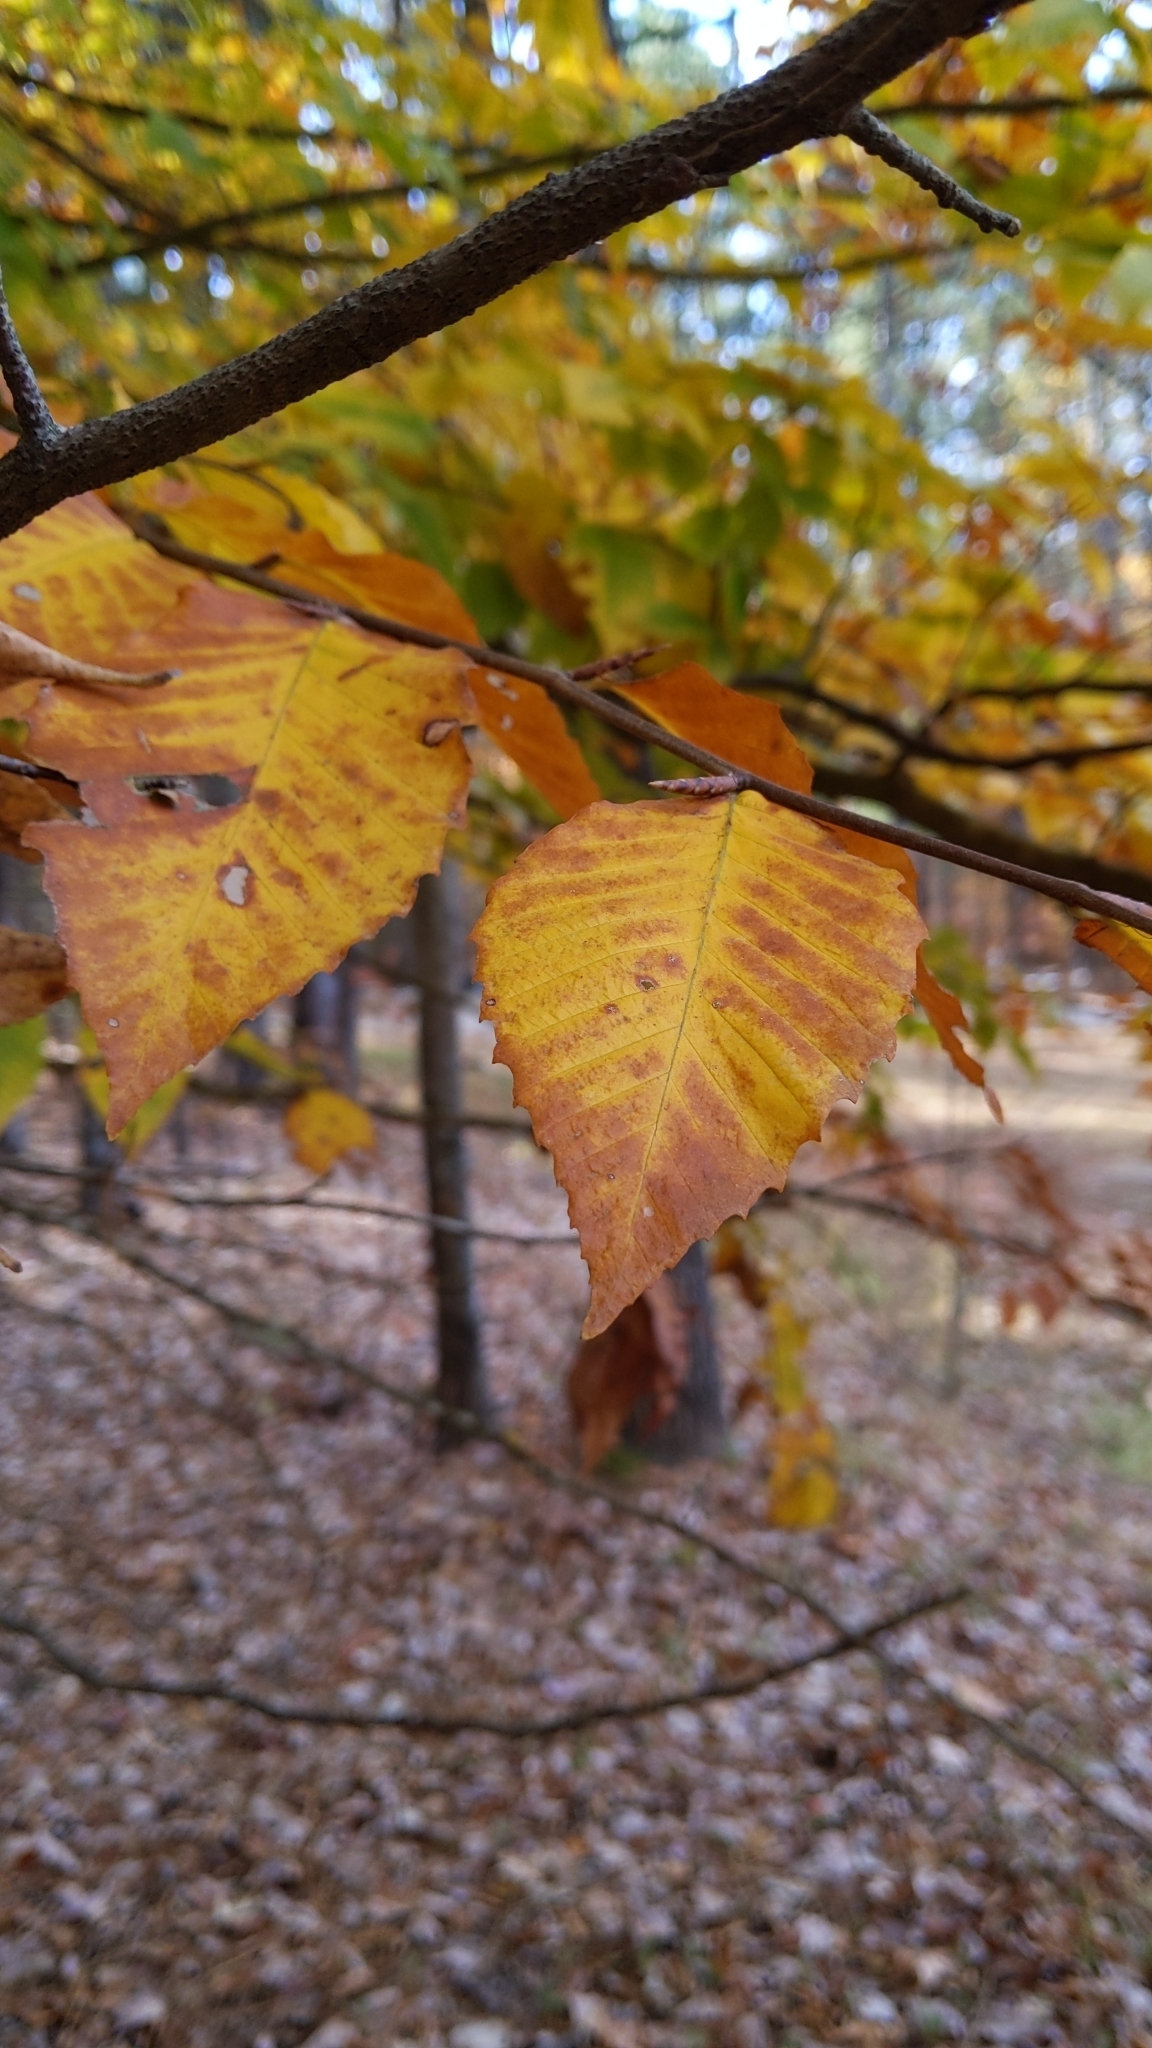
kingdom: Plantae
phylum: Tracheophyta
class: Magnoliopsida
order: Fagales
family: Fagaceae
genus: Fagus
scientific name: Fagus grandifolia
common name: American beech
